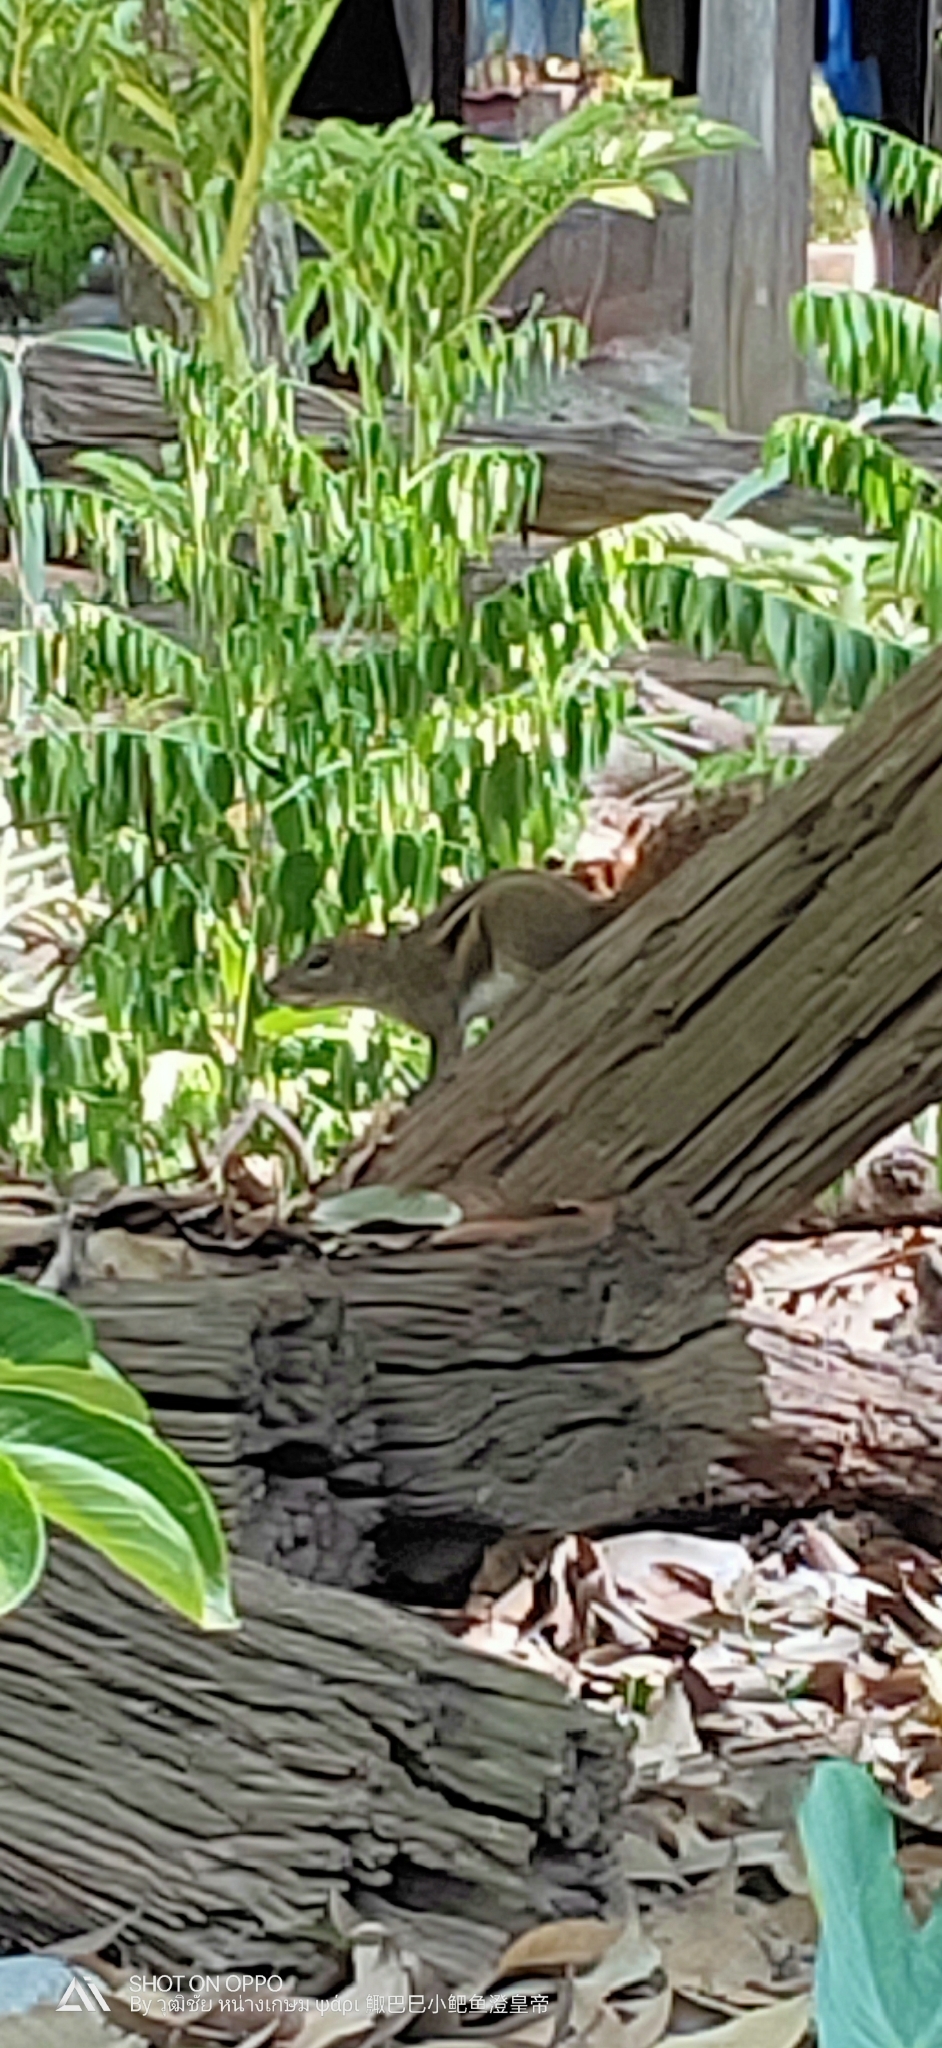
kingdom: Animalia
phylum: Chordata
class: Mammalia
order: Rodentia
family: Sciuridae
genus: Menetes
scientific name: Menetes berdmorei
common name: Indochinese ground squirrel
